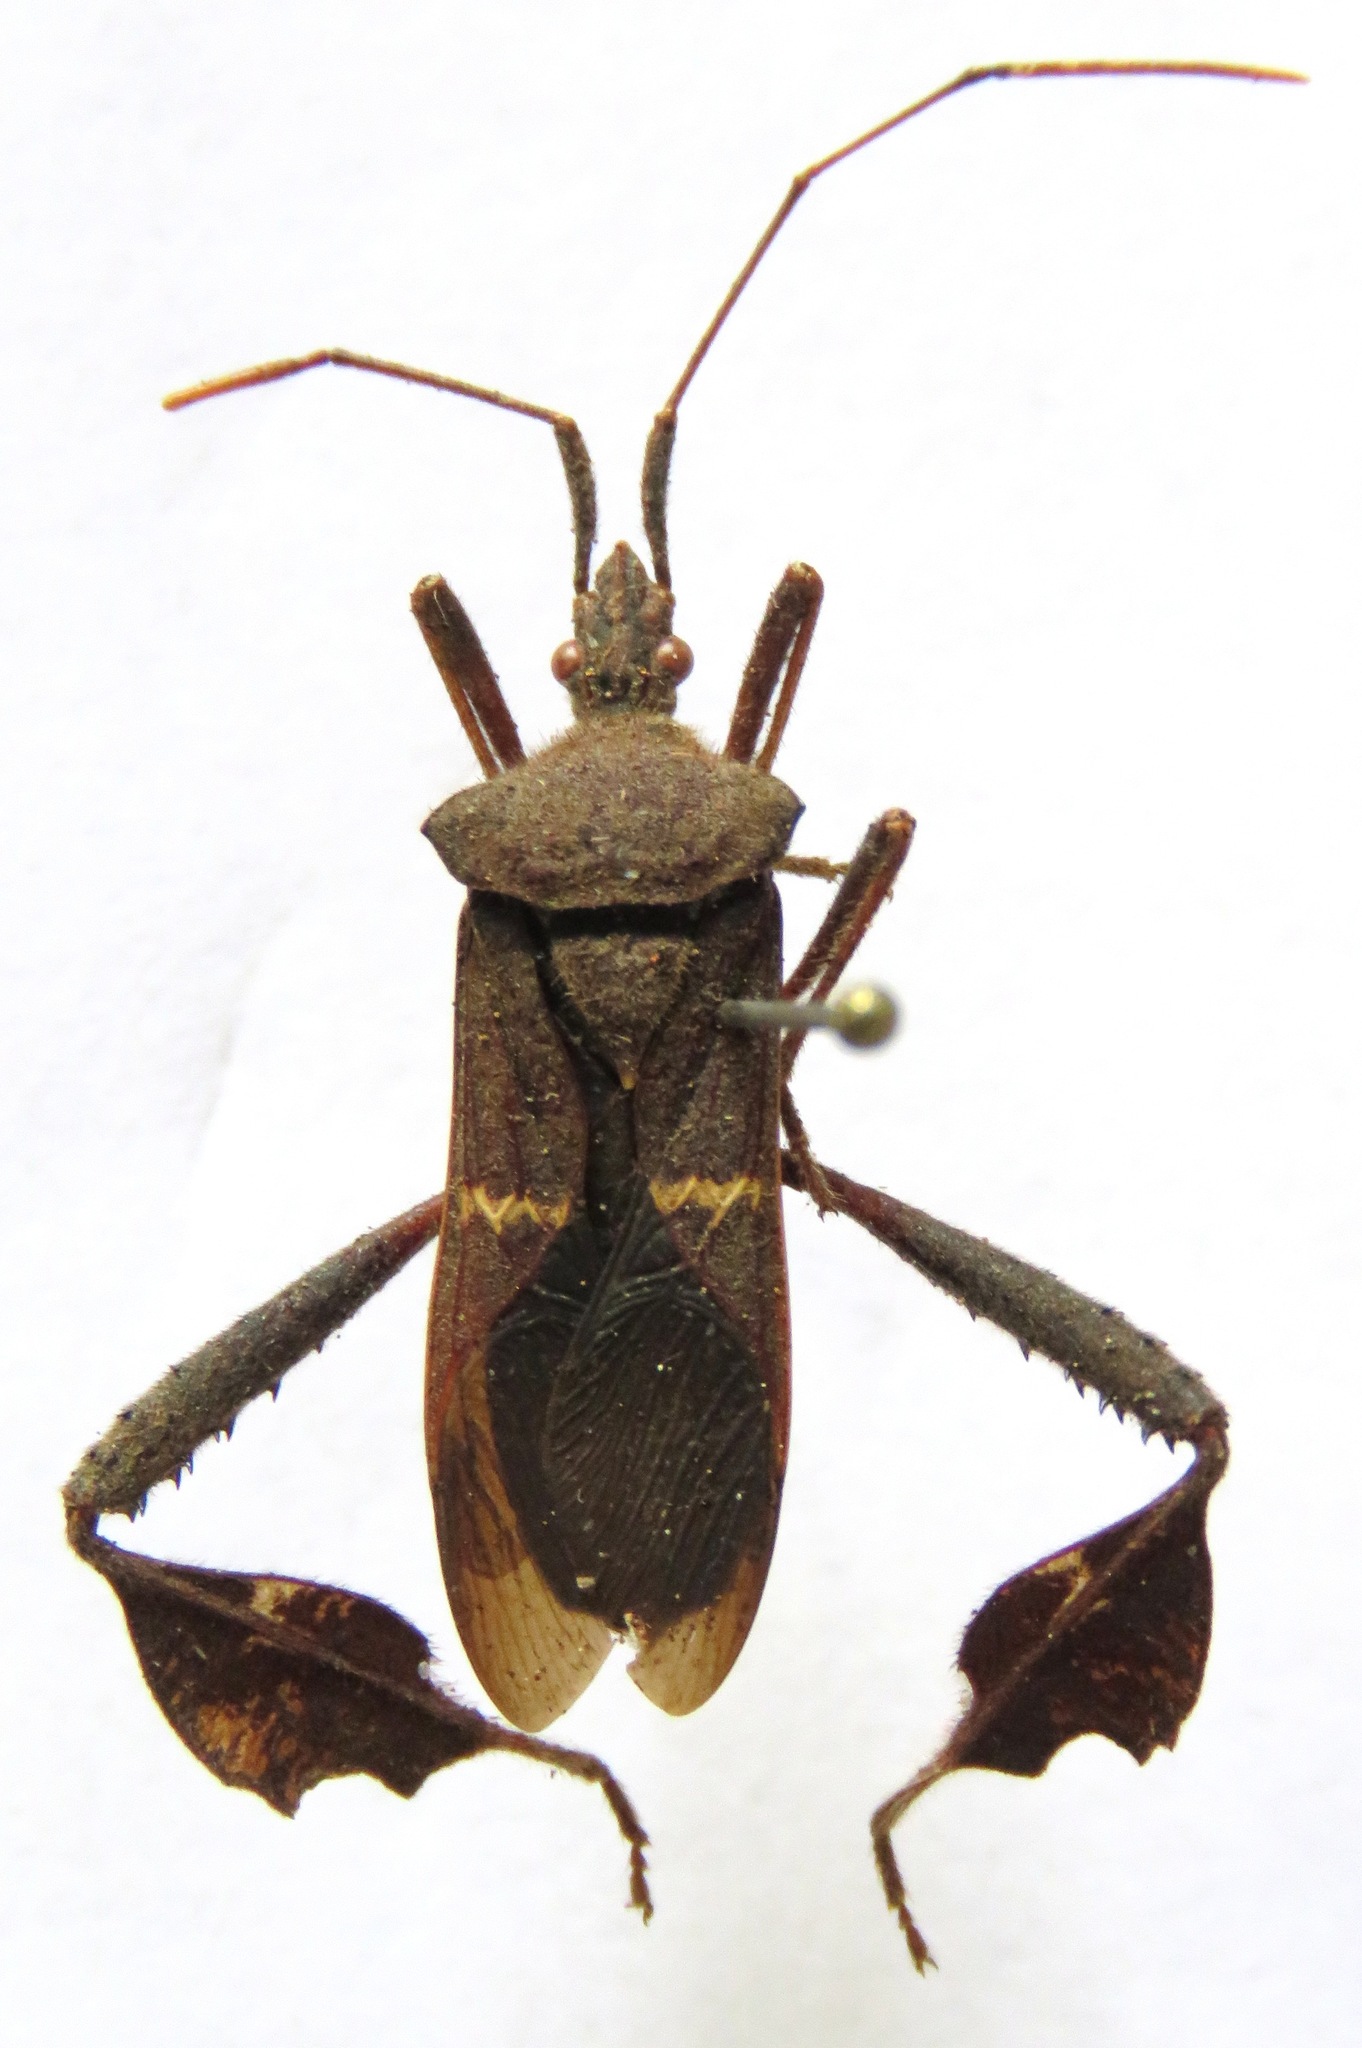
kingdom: Animalia
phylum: Arthropoda
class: Insecta
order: Hemiptera
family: Coreidae
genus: Leptoglossus
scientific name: Leptoglossus concolor
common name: Leaf-footed bug
